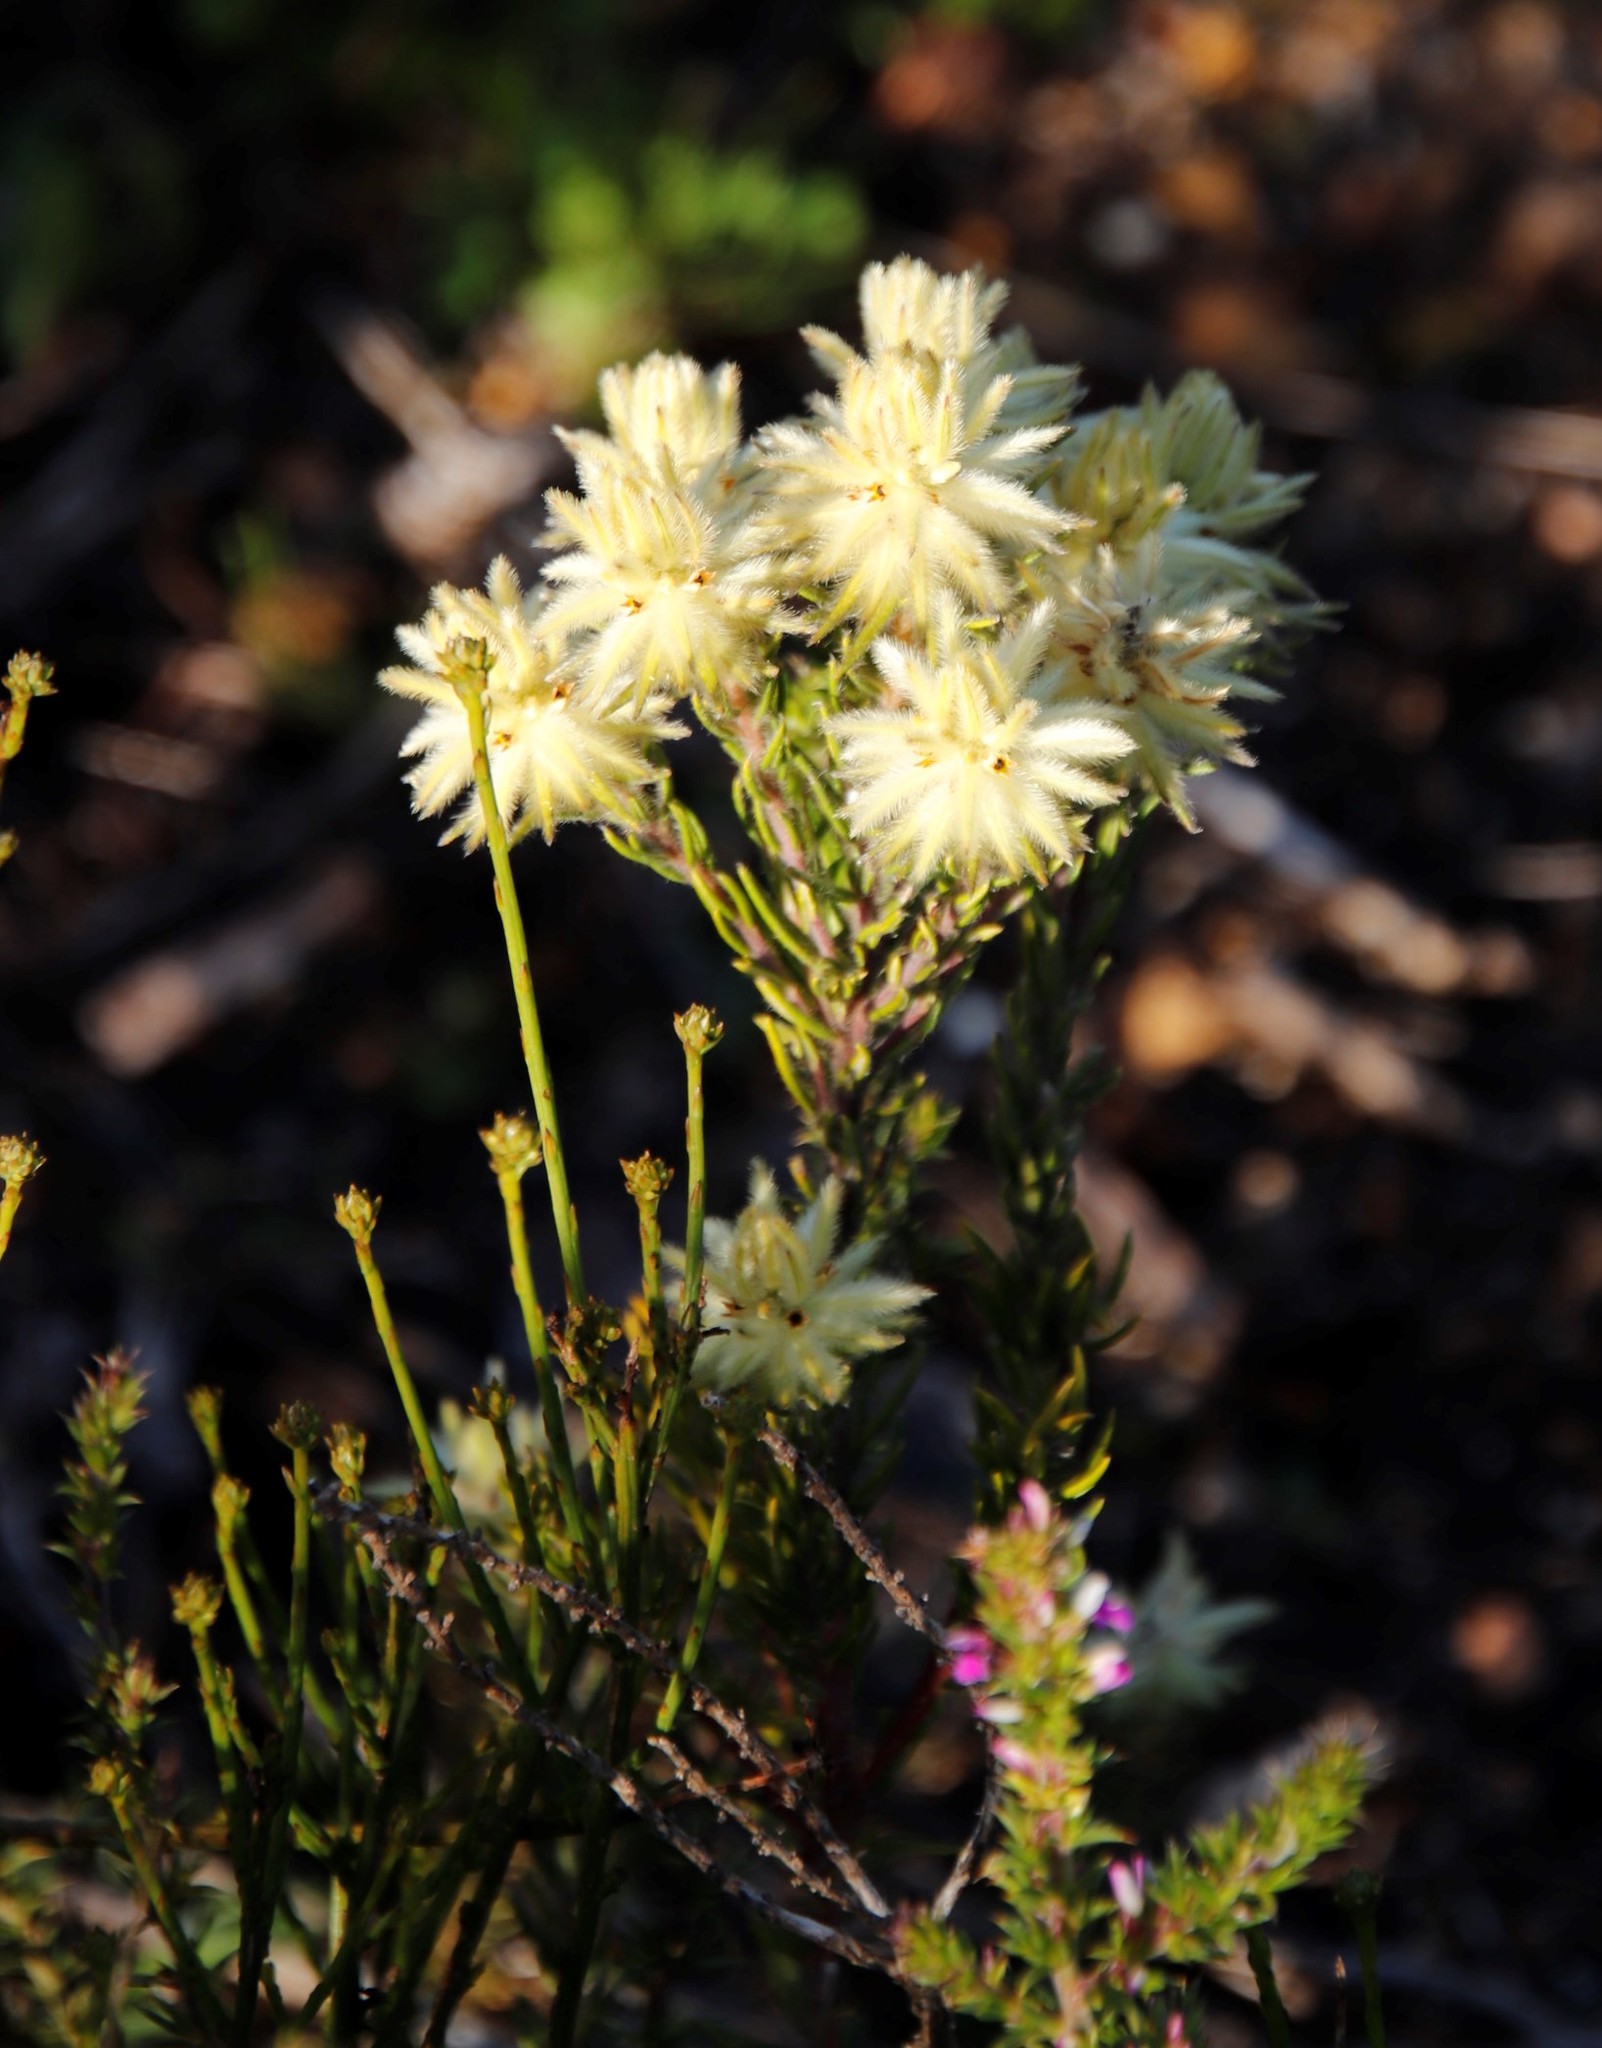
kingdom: Plantae
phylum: Tracheophyta
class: Magnoliopsida
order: Rosales
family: Rhamnaceae
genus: Phylica
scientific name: Phylica pubescens
